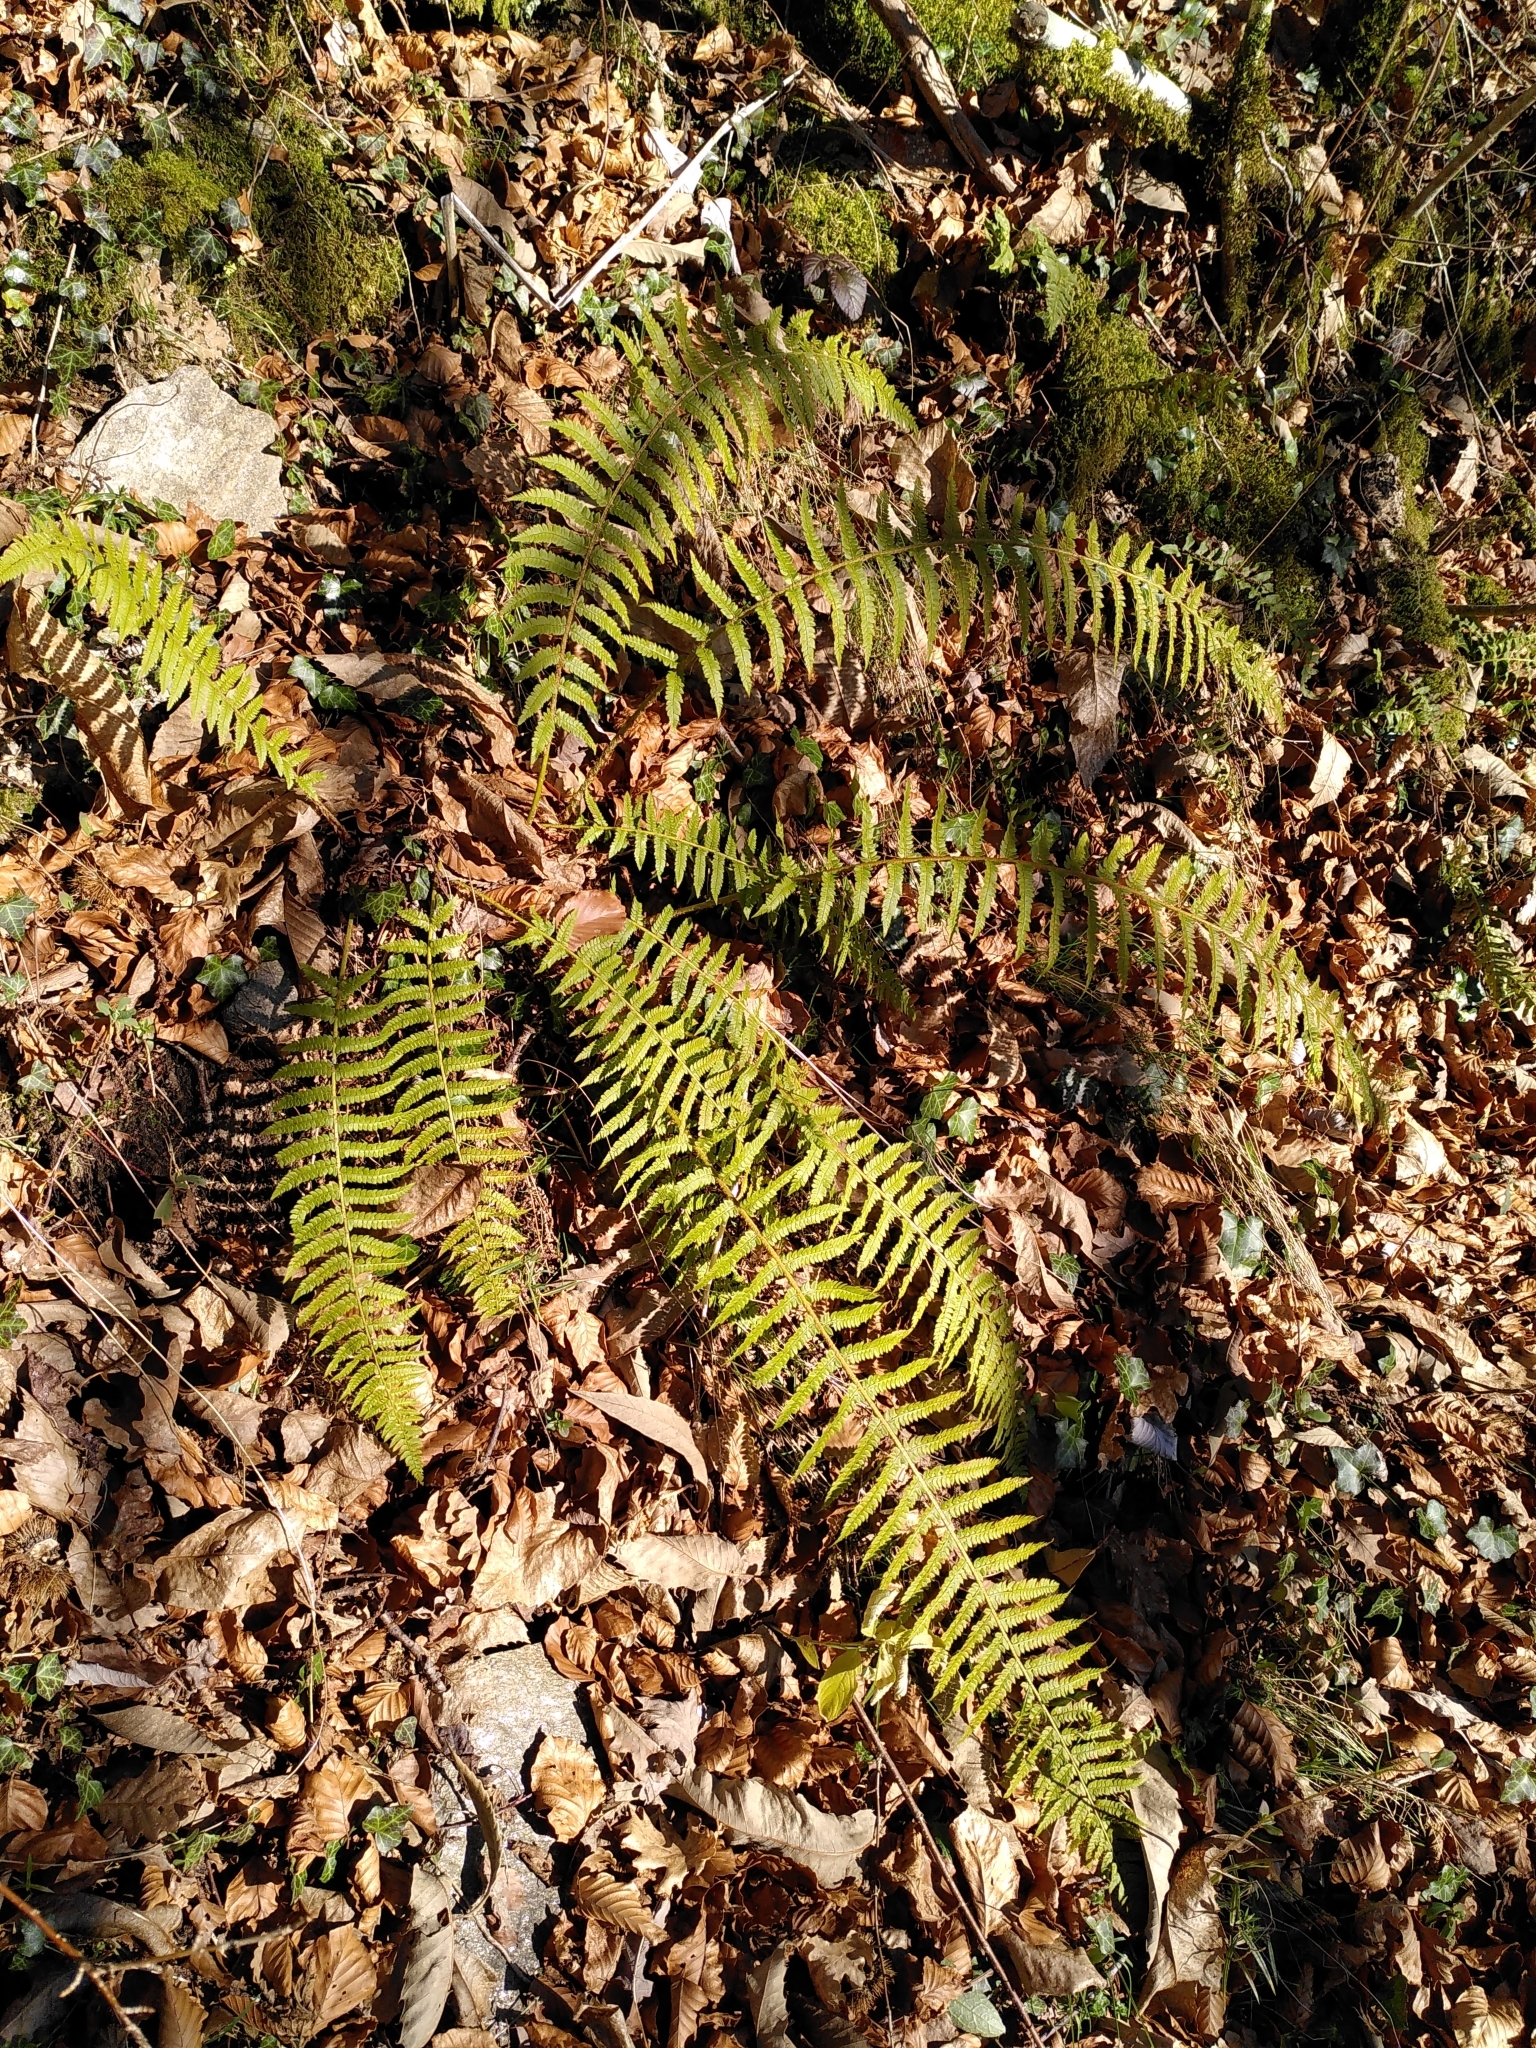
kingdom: Plantae
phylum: Tracheophyta
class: Polypodiopsida
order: Polypodiales
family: Dryopteridaceae
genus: Polystichum
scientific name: Polystichum setiferum
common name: Soft shield-fern
